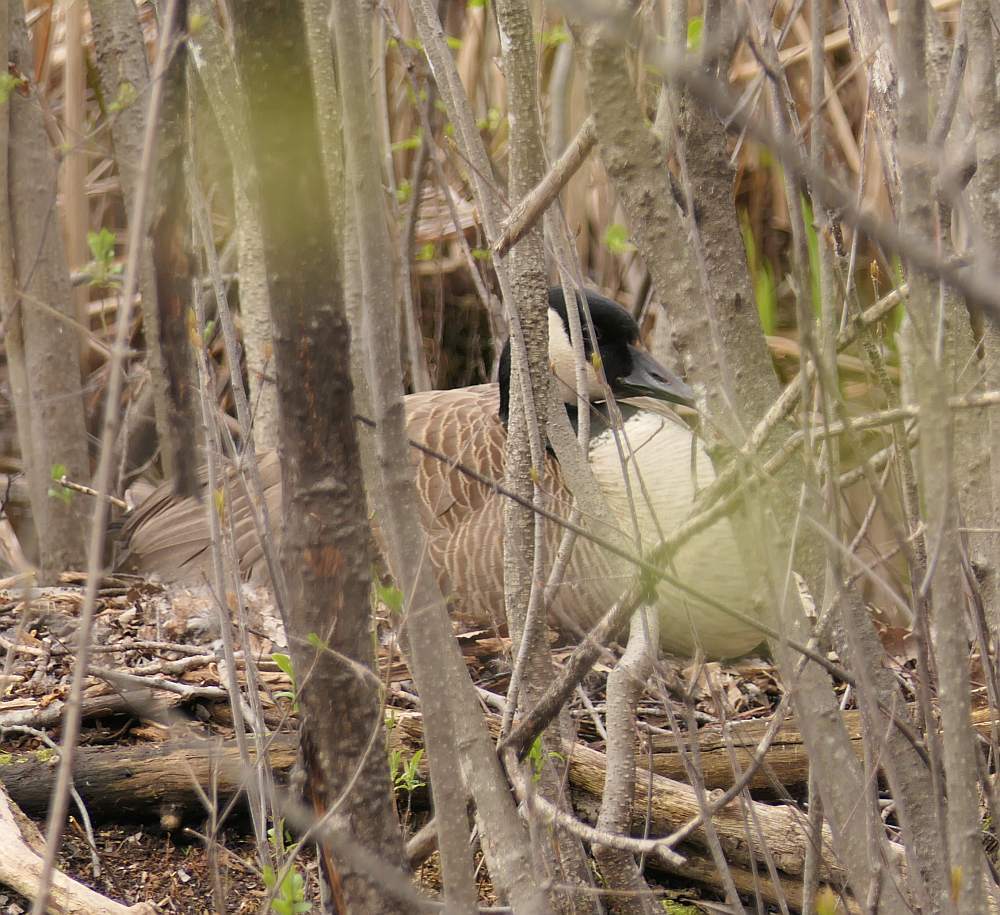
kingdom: Animalia
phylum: Chordata
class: Aves
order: Anseriformes
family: Anatidae
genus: Branta
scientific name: Branta canadensis
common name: Canada goose
